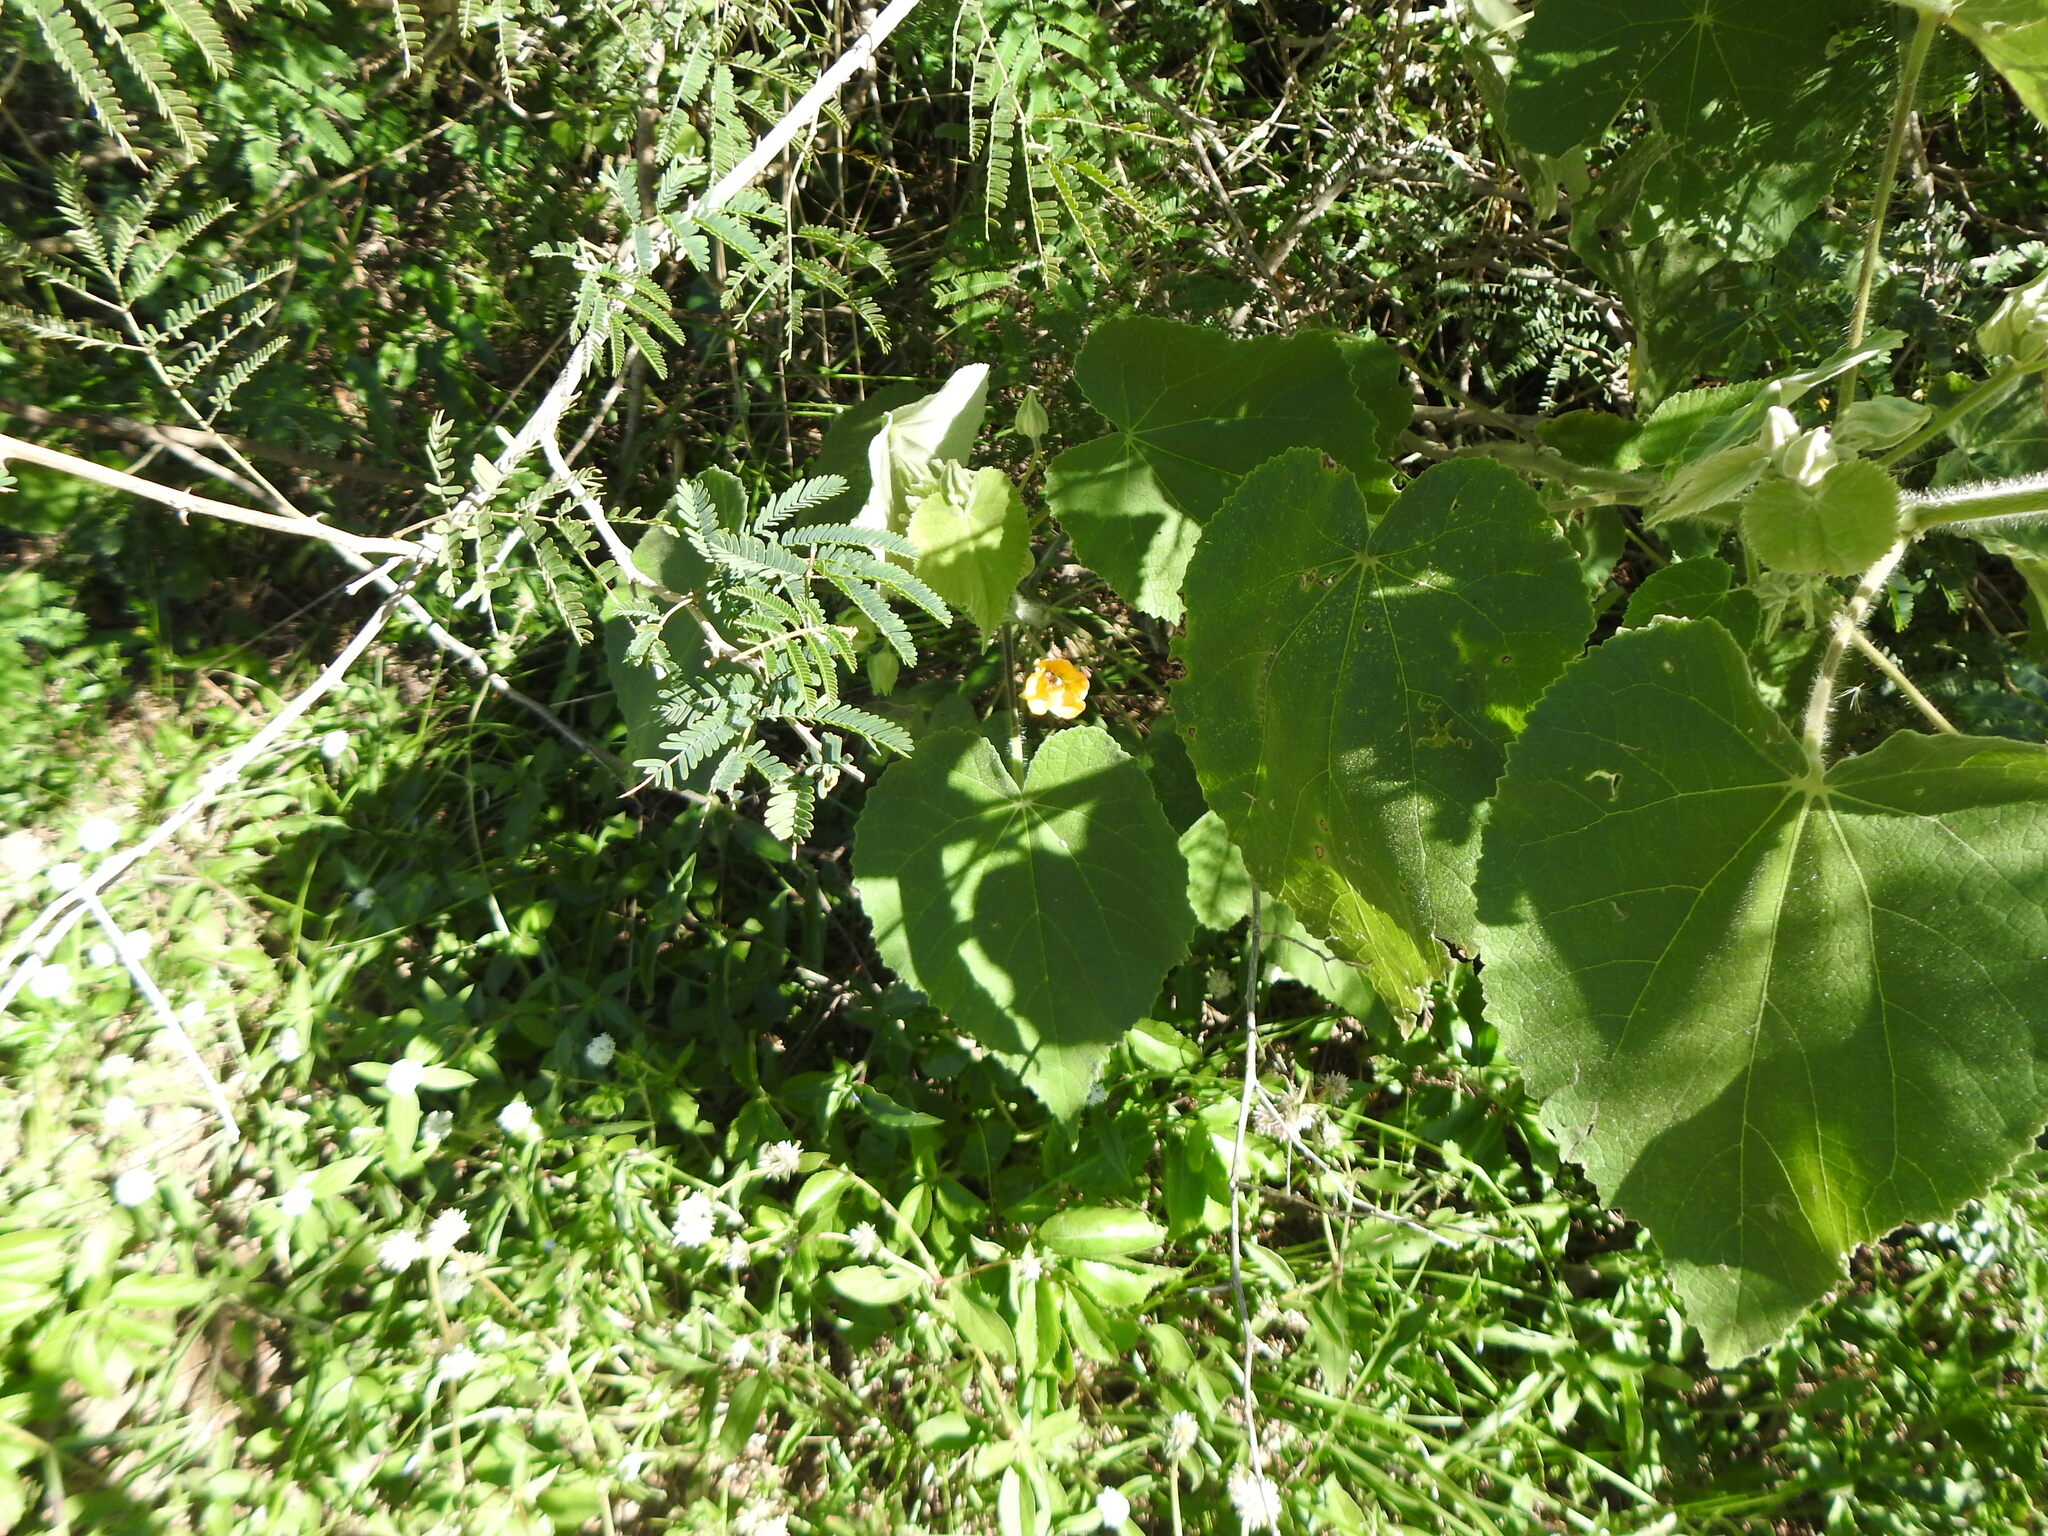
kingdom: Plantae
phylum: Tracheophyta
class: Magnoliopsida
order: Malvales
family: Malvaceae
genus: Abutilon
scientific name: Abutilon grandifolium
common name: Hairy abutilon
